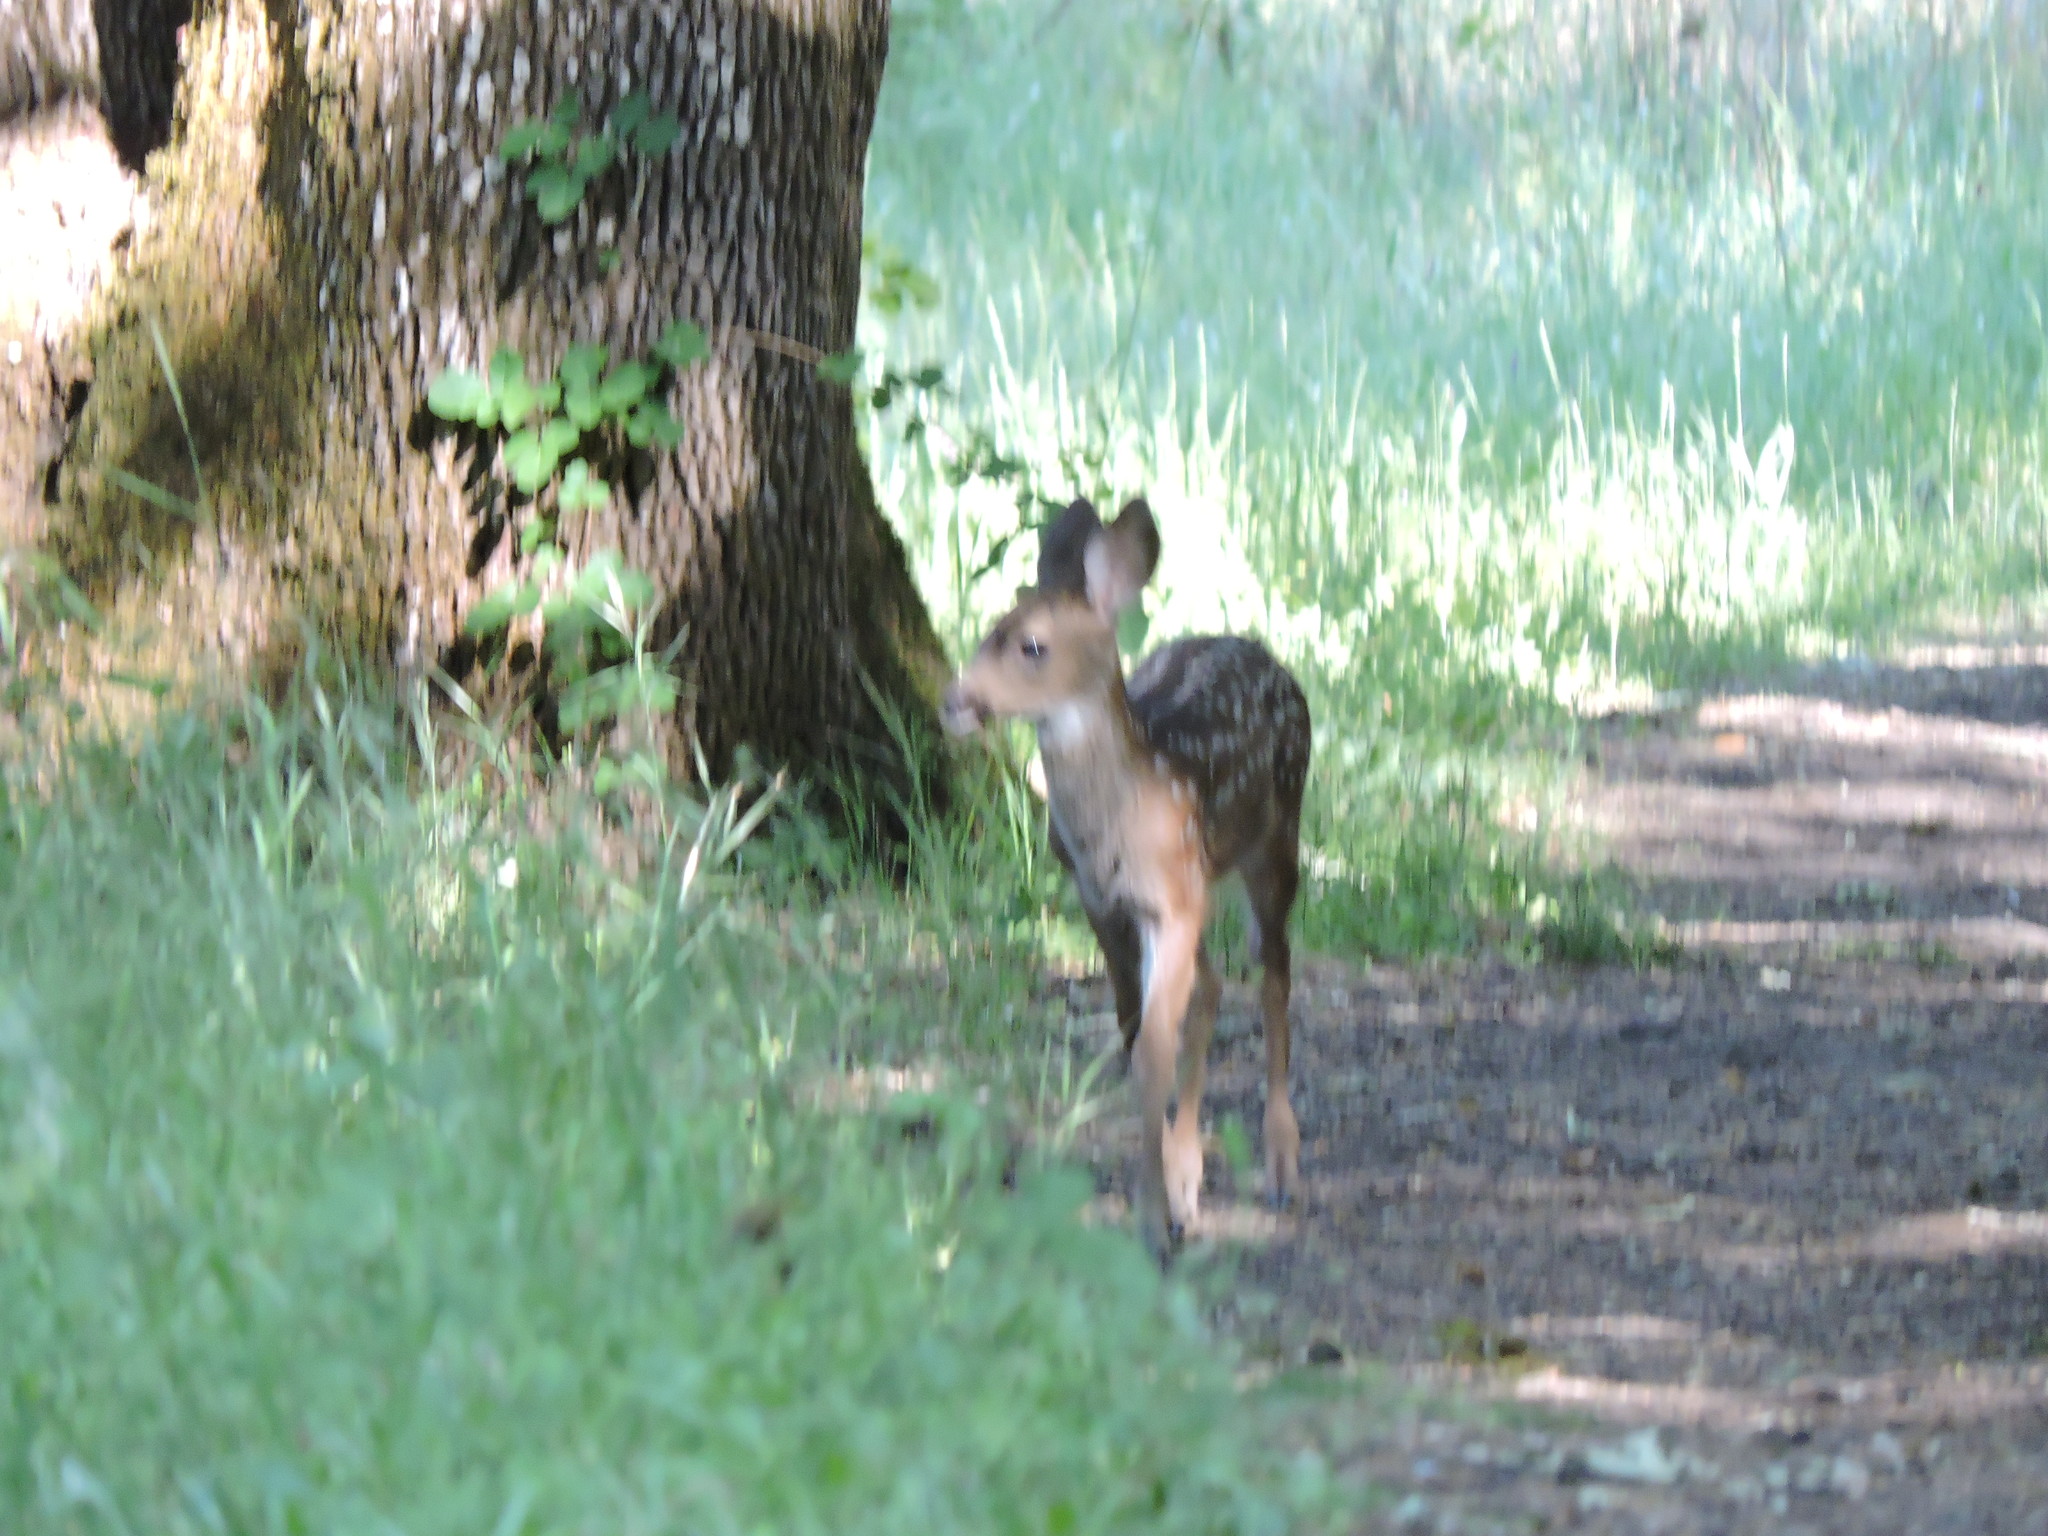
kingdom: Animalia
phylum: Chordata
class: Mammalia
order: Artiodactyla
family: Cervidae
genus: Odocoileus
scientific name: Odocoileus hemionus
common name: Mule deer
